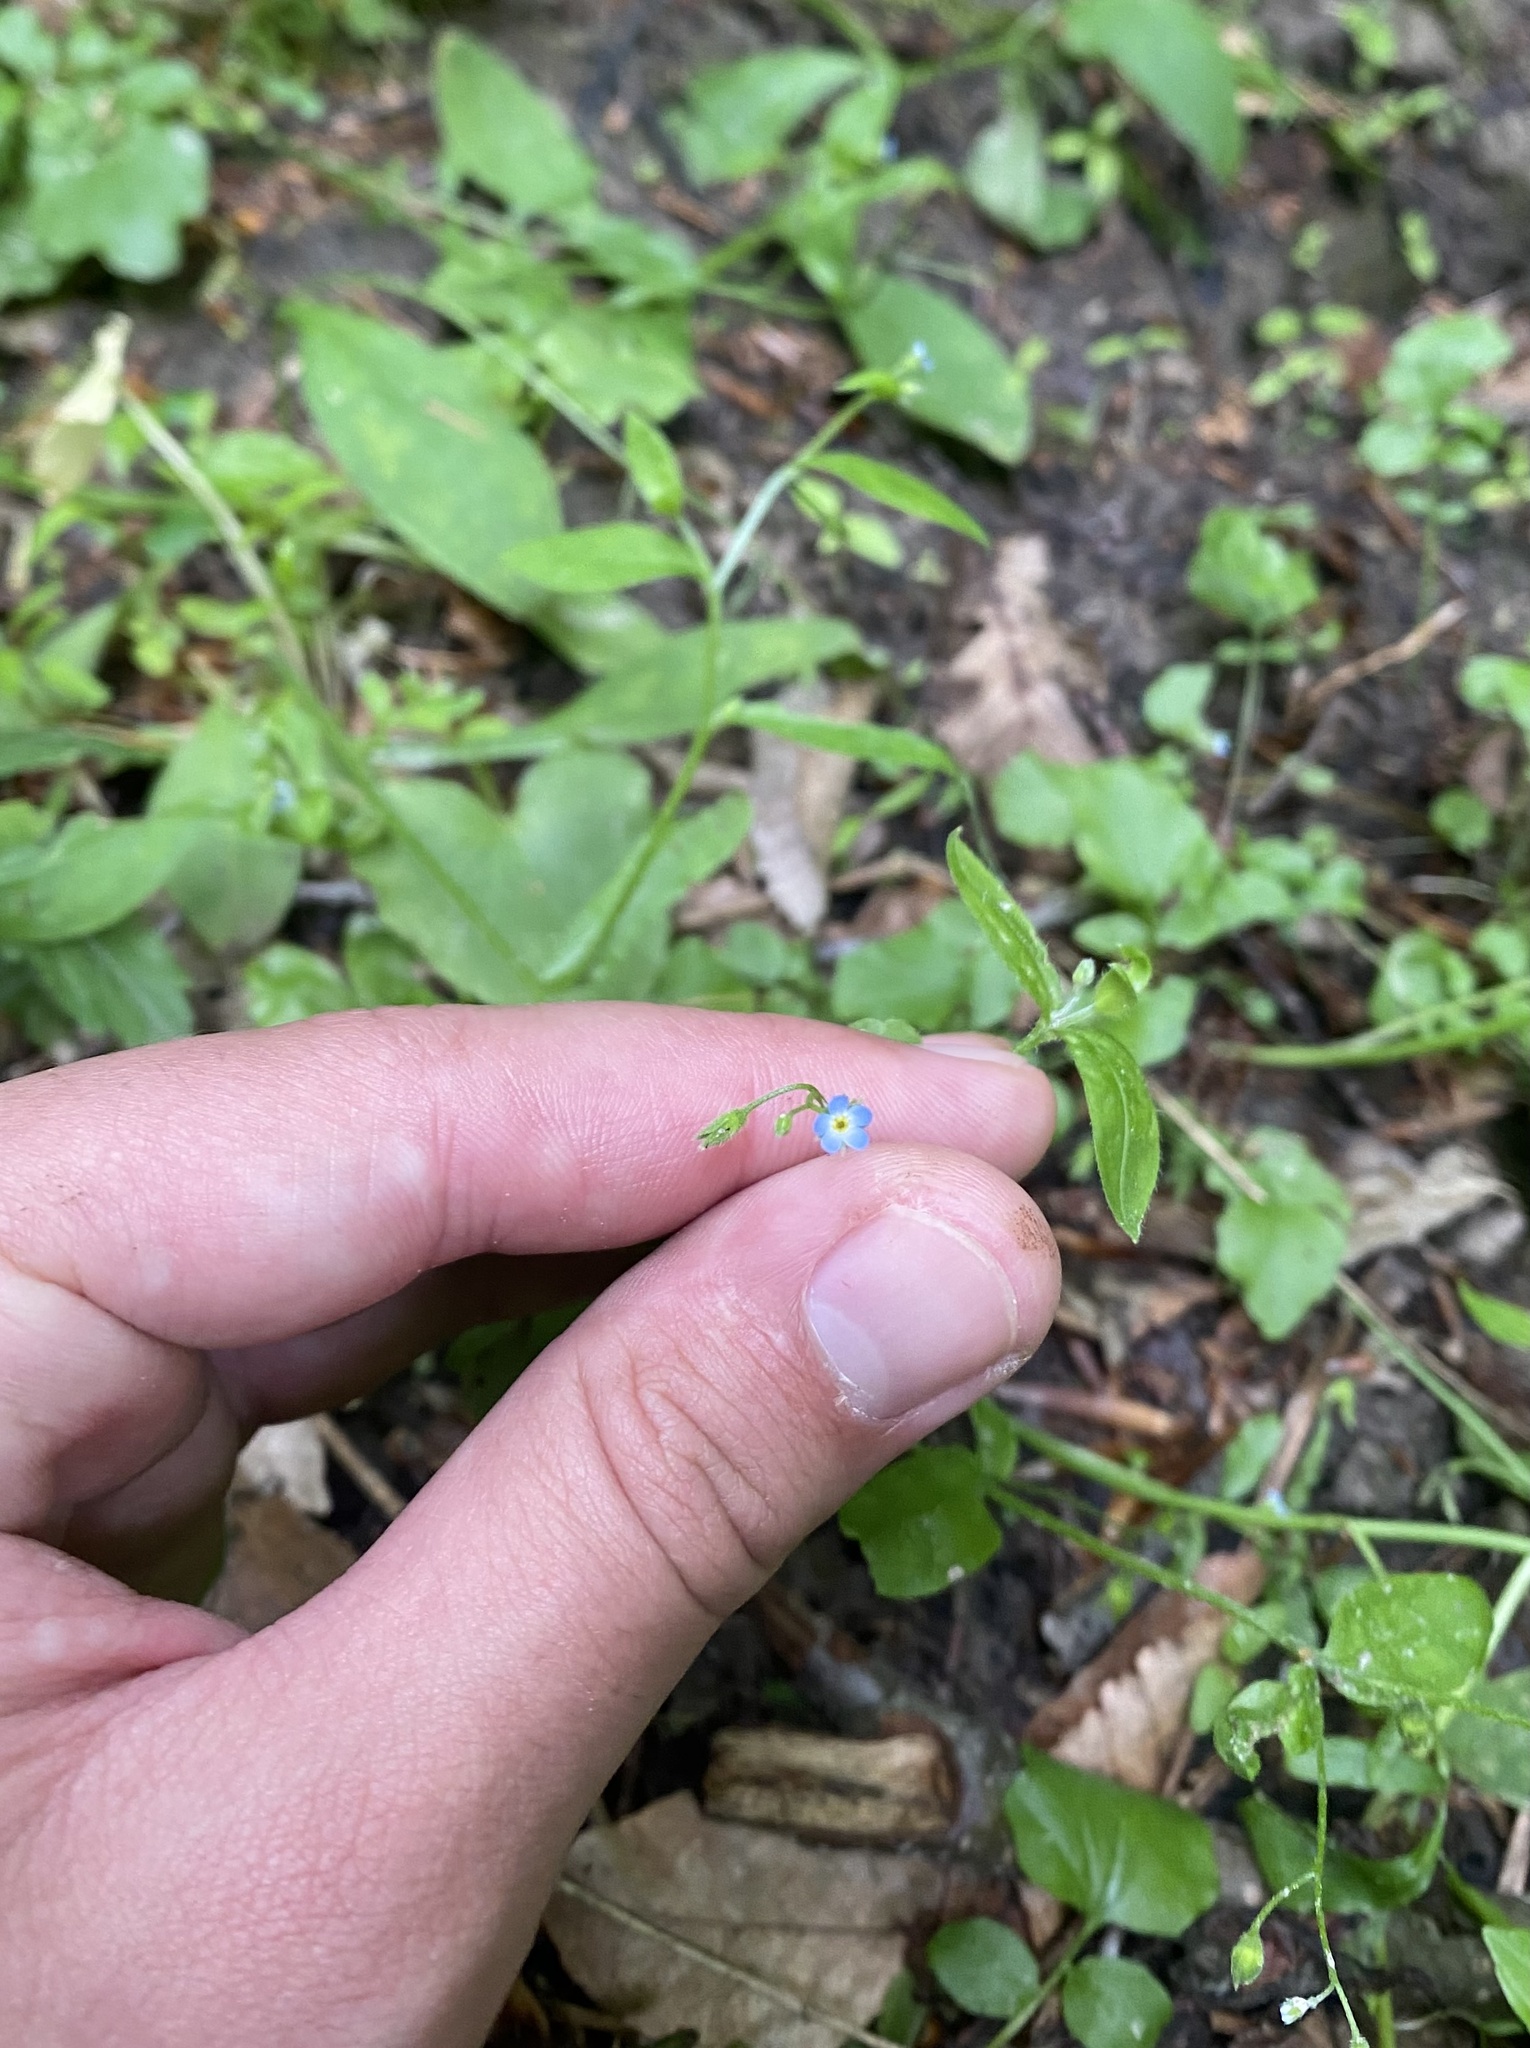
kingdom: Plantae
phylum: Tracheophyta
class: Magnoliopsida
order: Boraginales
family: Boraginaceae
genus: Myosotis
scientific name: Myosotis sparsiflora
